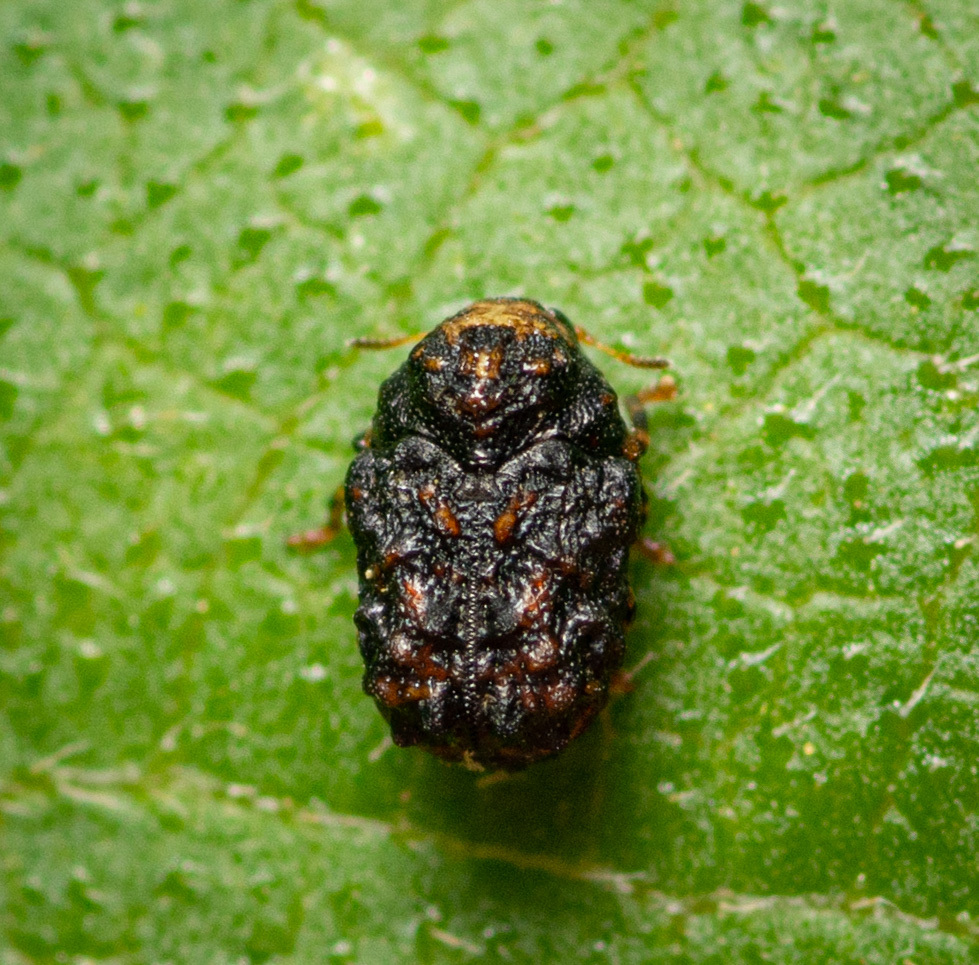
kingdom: Animalia
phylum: Arthropoda
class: Insecta
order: Coleoptera
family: Chrysomelidae
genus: Exema
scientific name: Exema dispar
